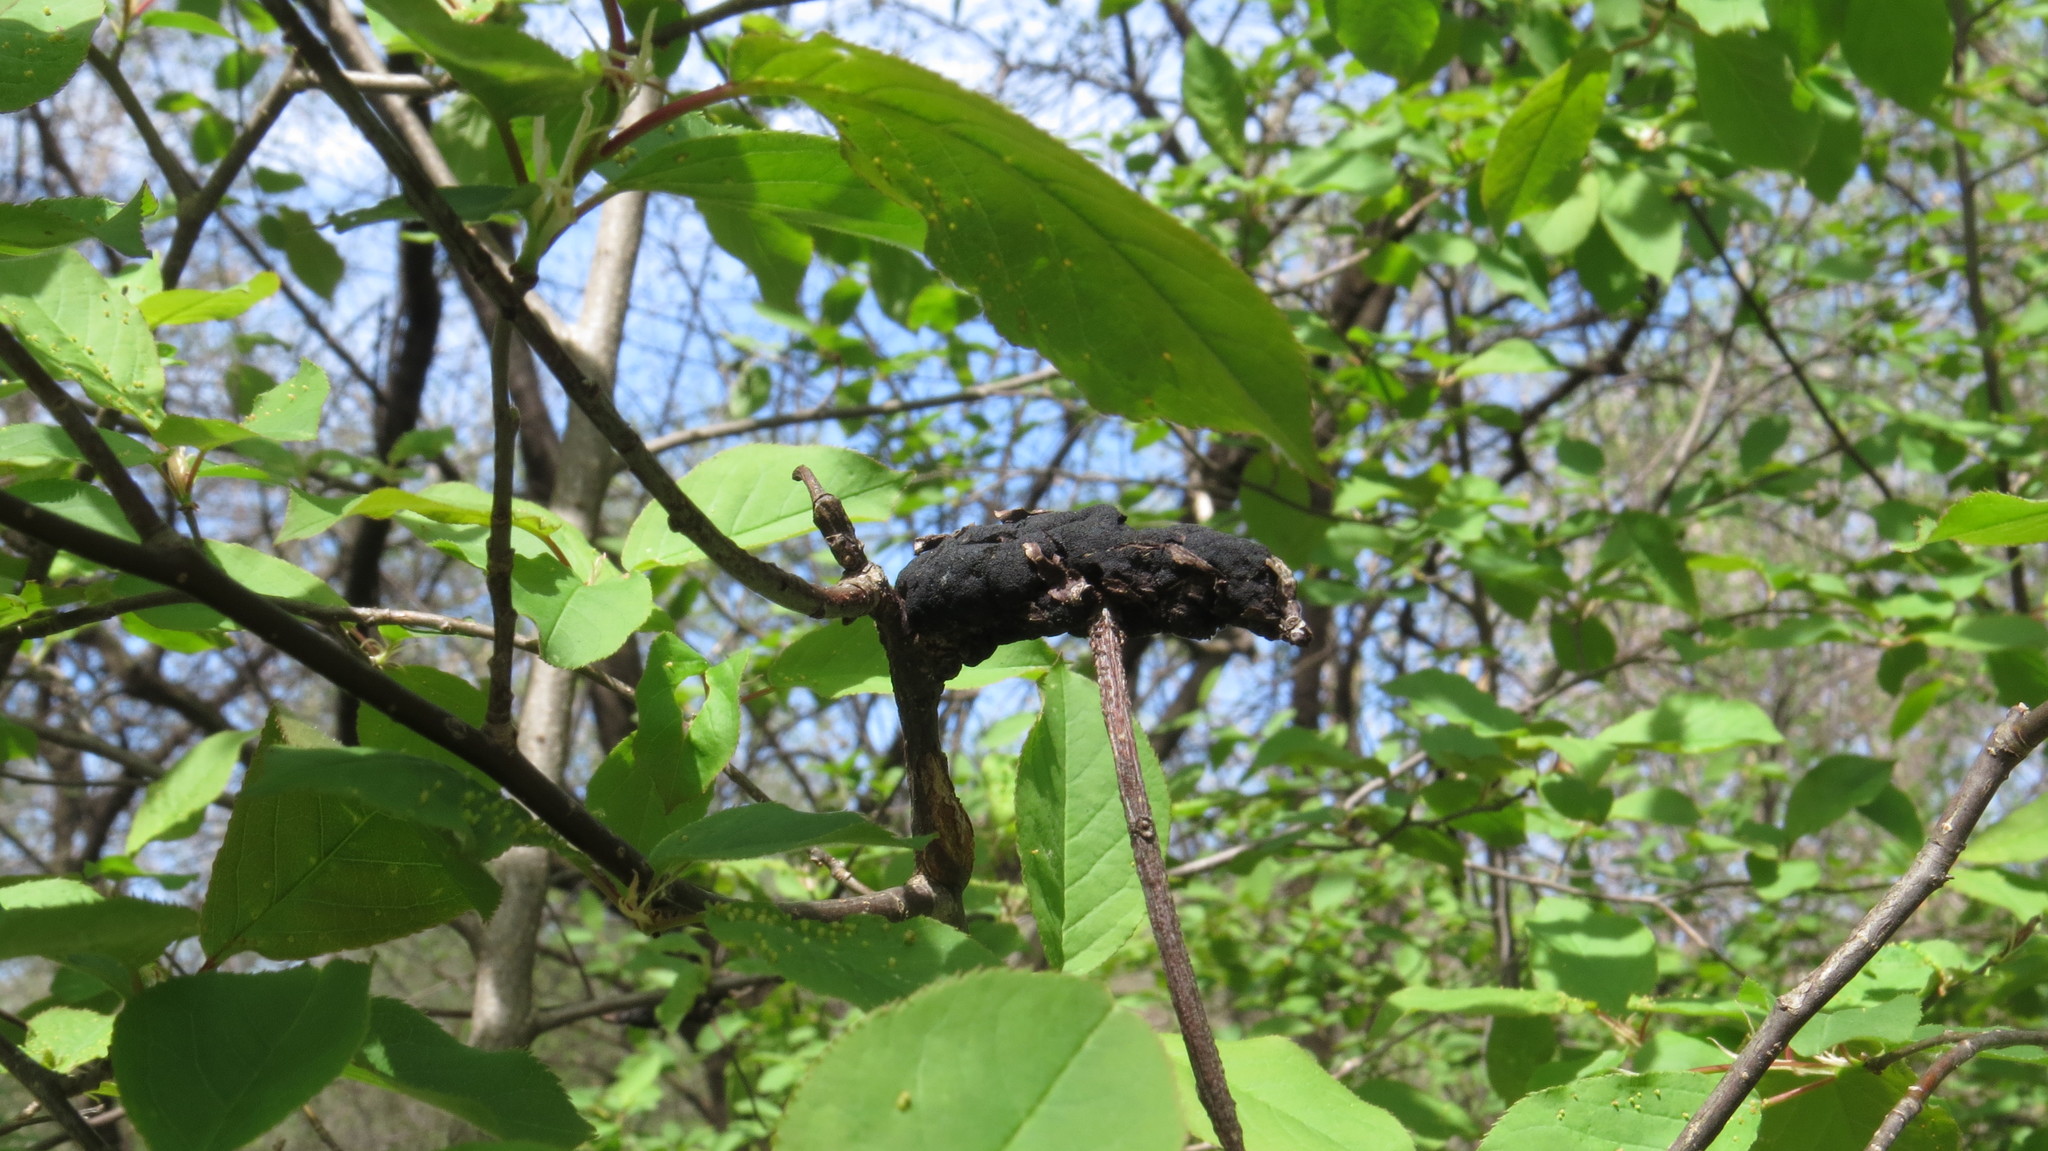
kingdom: Fungi
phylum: Ascomycota
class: Dothideomycetes
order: Venturiales
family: Venturiaceae
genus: Apiosporina
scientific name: Apiosporina morbosa
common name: Black knot
